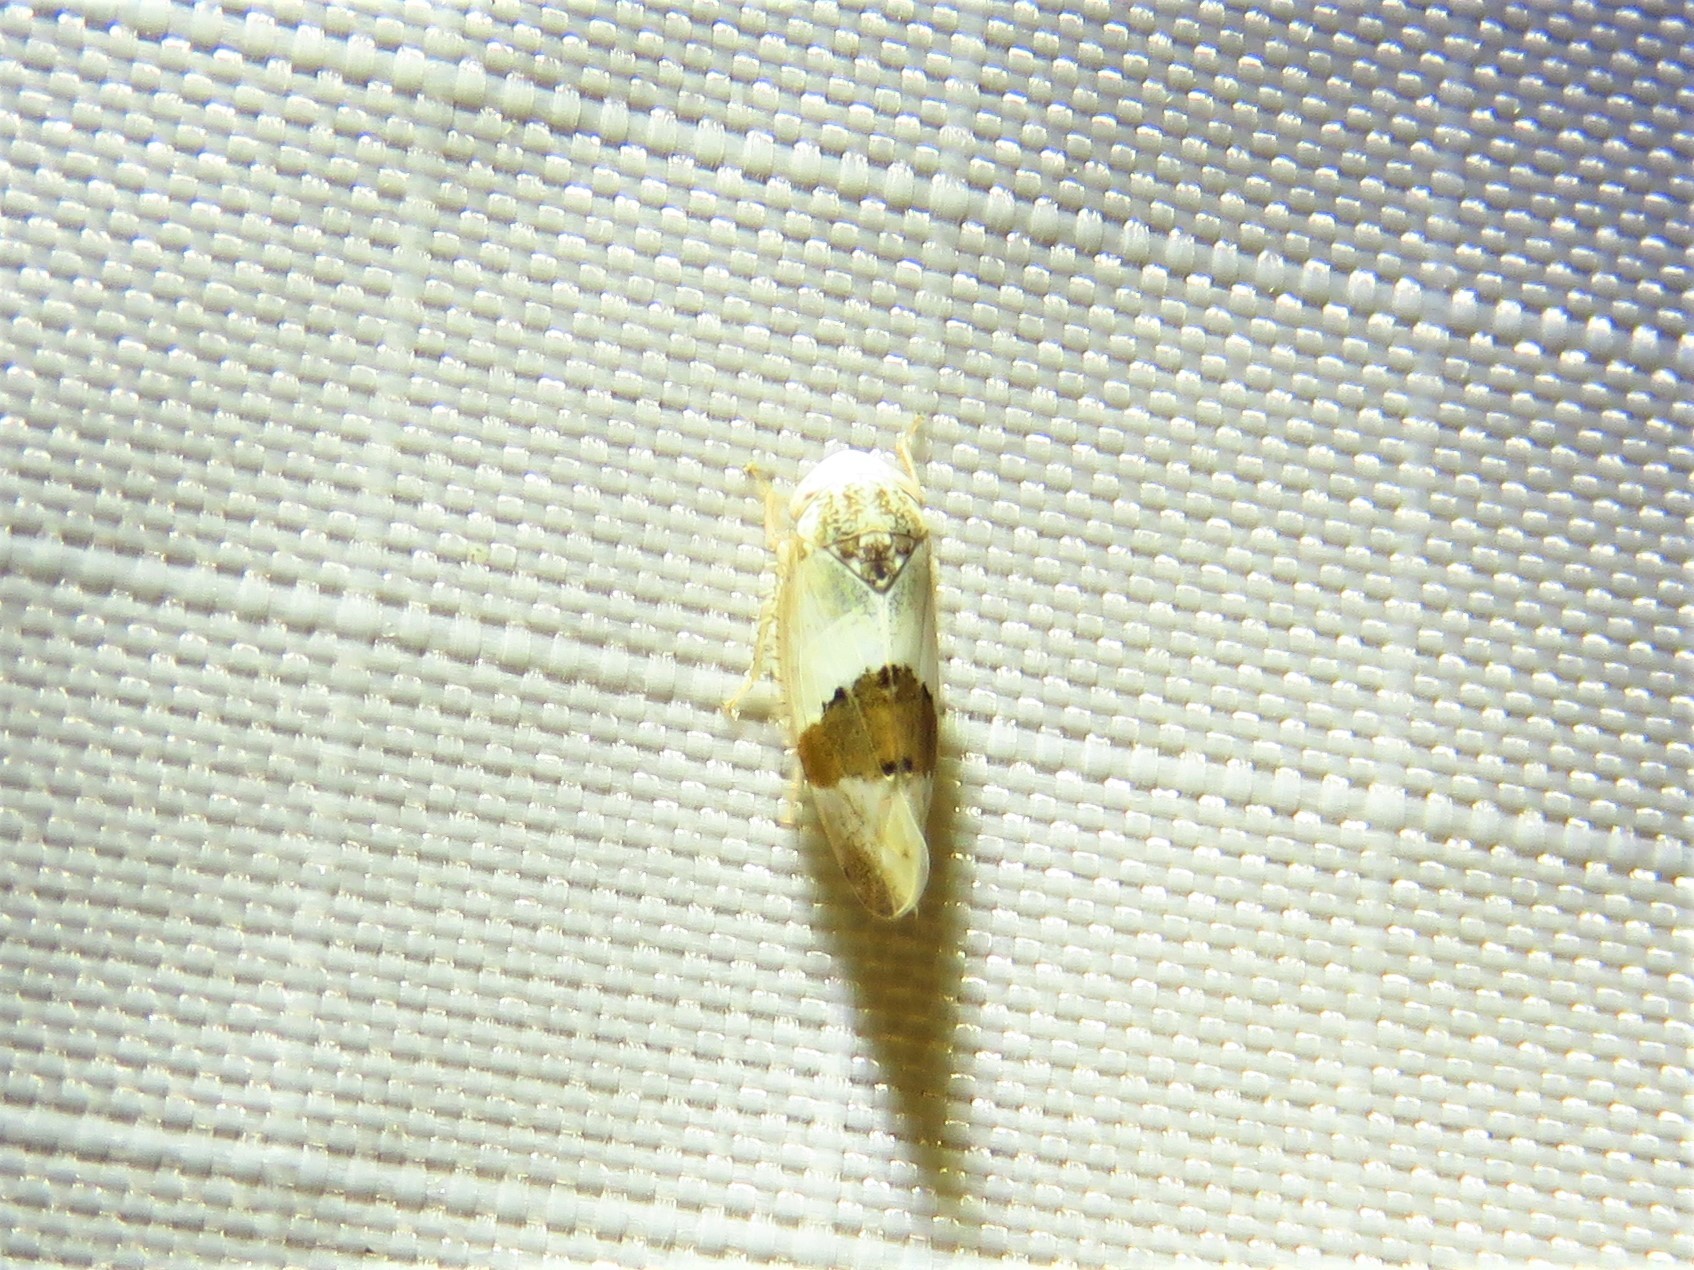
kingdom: Animalia
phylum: Arthropoda
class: Insecta
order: Hemiptera
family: Cicadellidae
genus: Norvellina
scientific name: Norvellina seminuda
